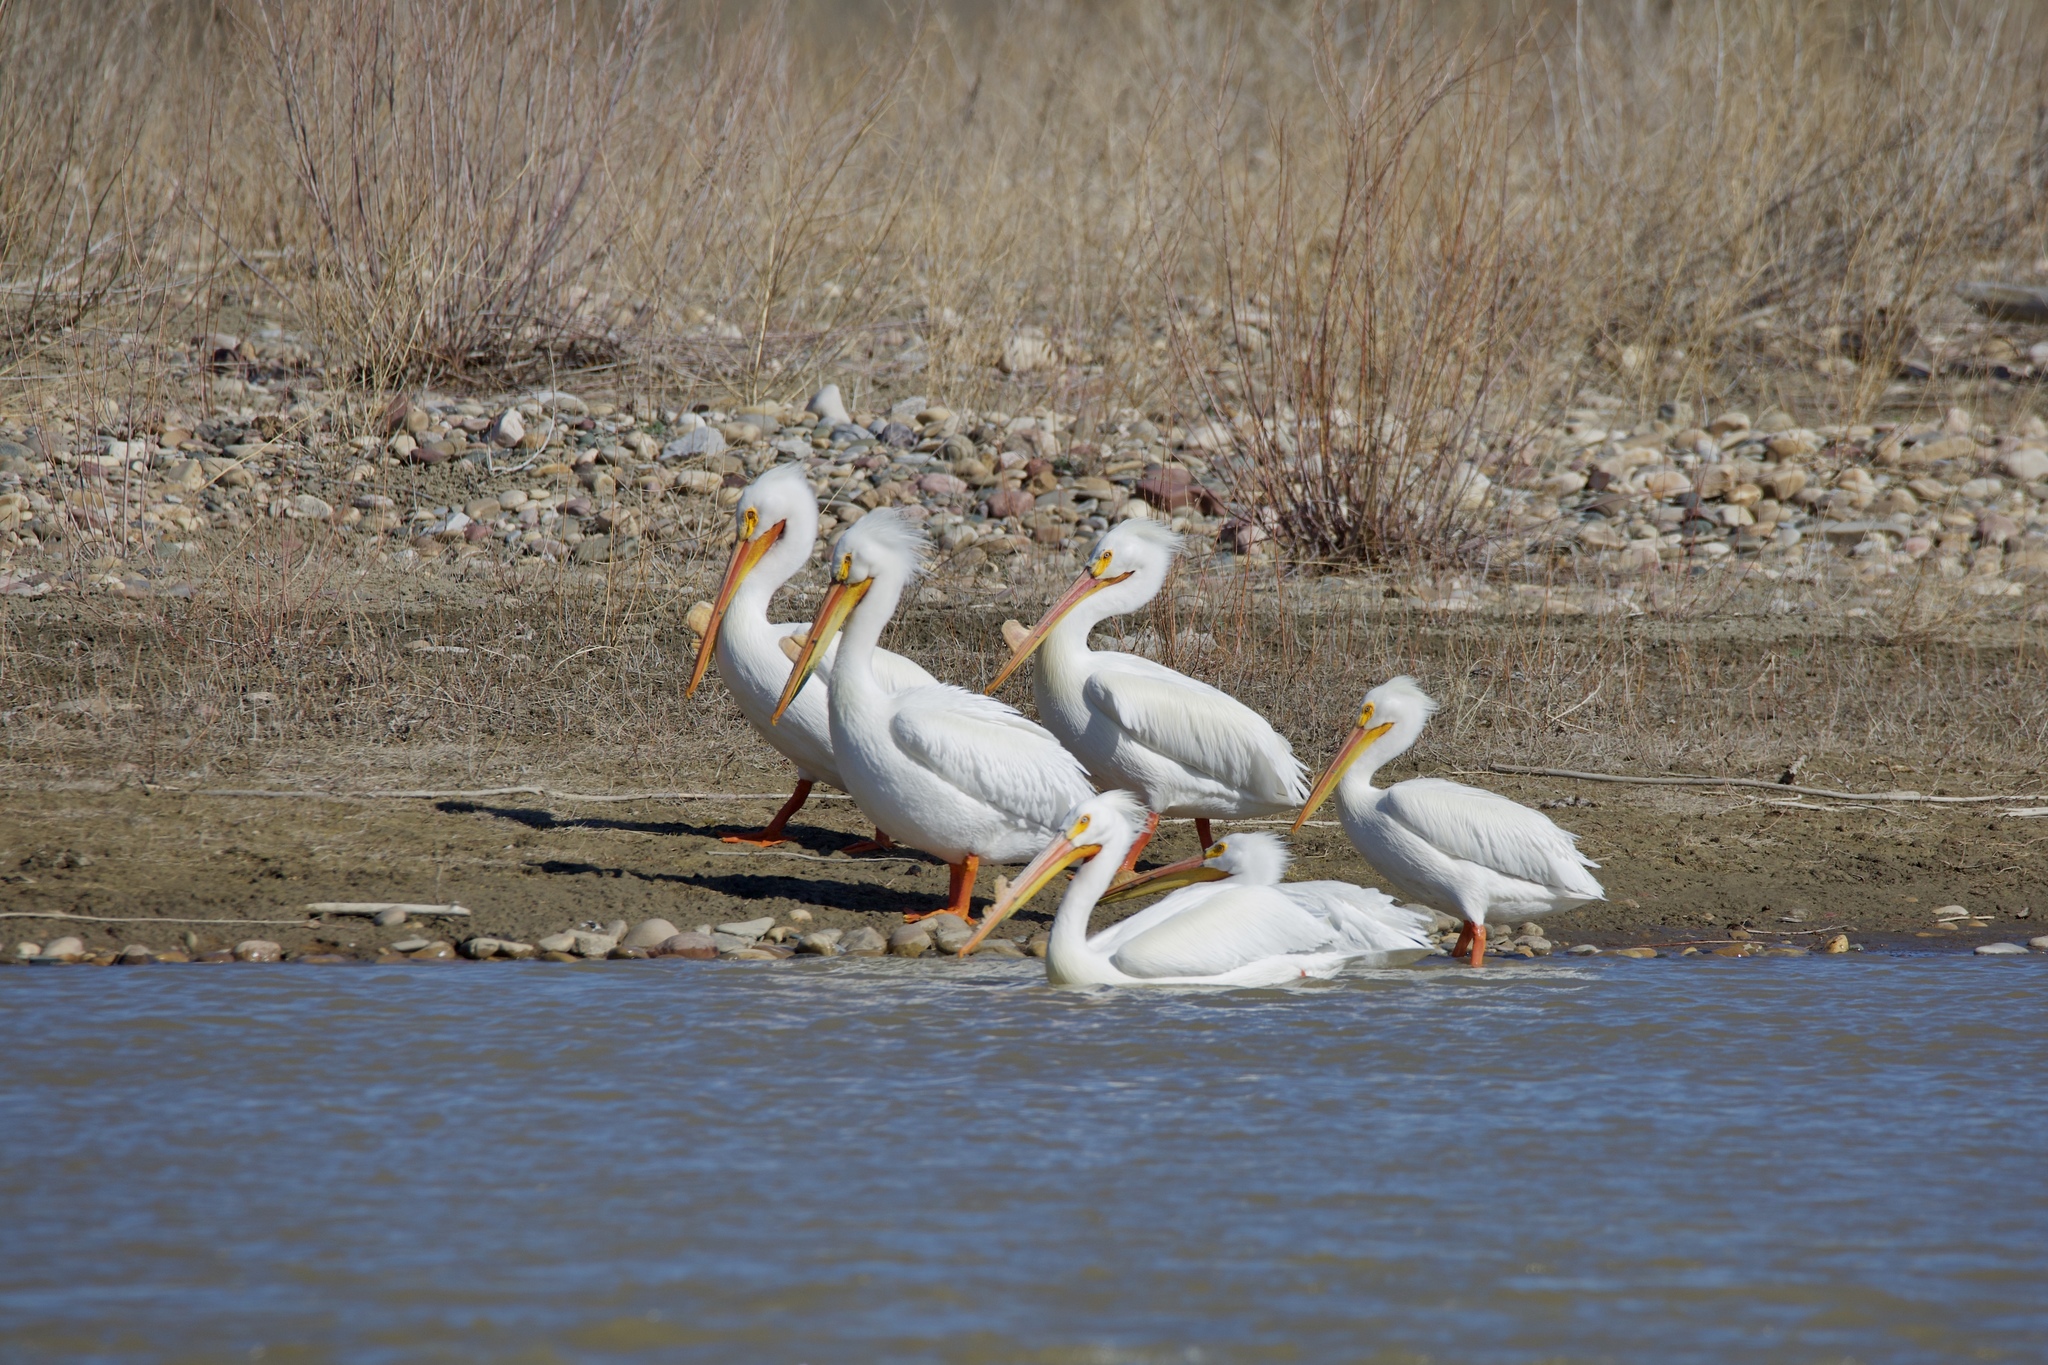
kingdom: Animalia
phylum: Chordata
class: Aves
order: Pelecaniformes
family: Pelecanidae
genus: Pelecanus
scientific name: Pelecanus erythrorhynchos
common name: American white pelican
